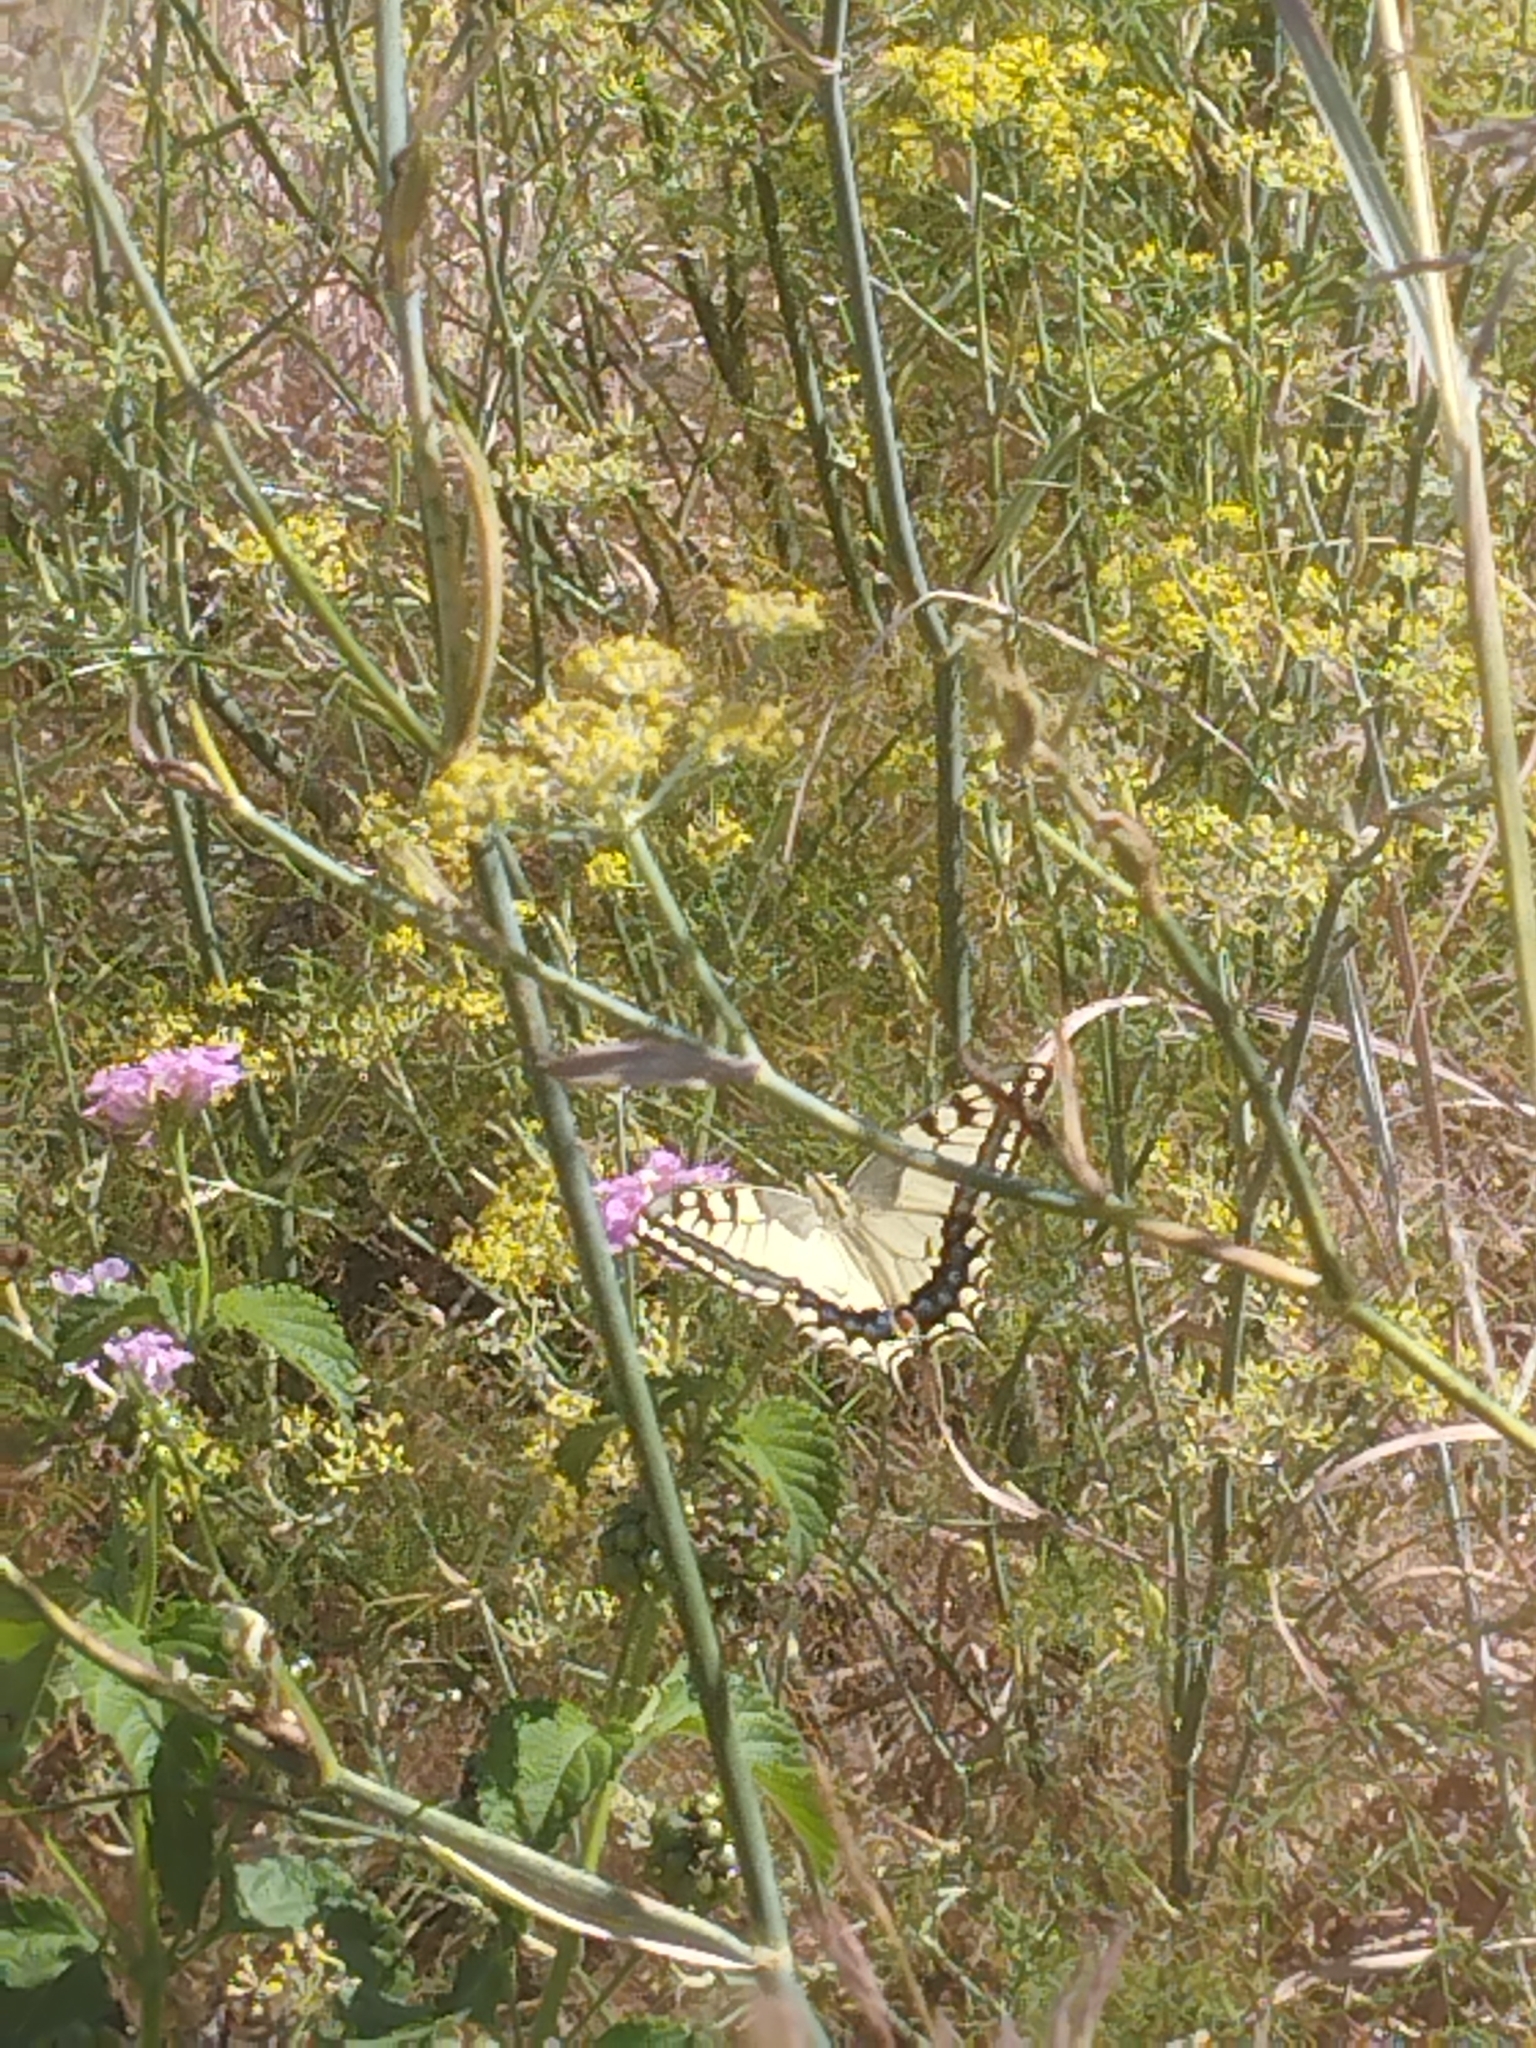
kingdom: Animalia
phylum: Arthropoda
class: Insecta
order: Lepidoptera
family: Papilionidae
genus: Papilio
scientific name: Papilio machaon
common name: Swallowtail
